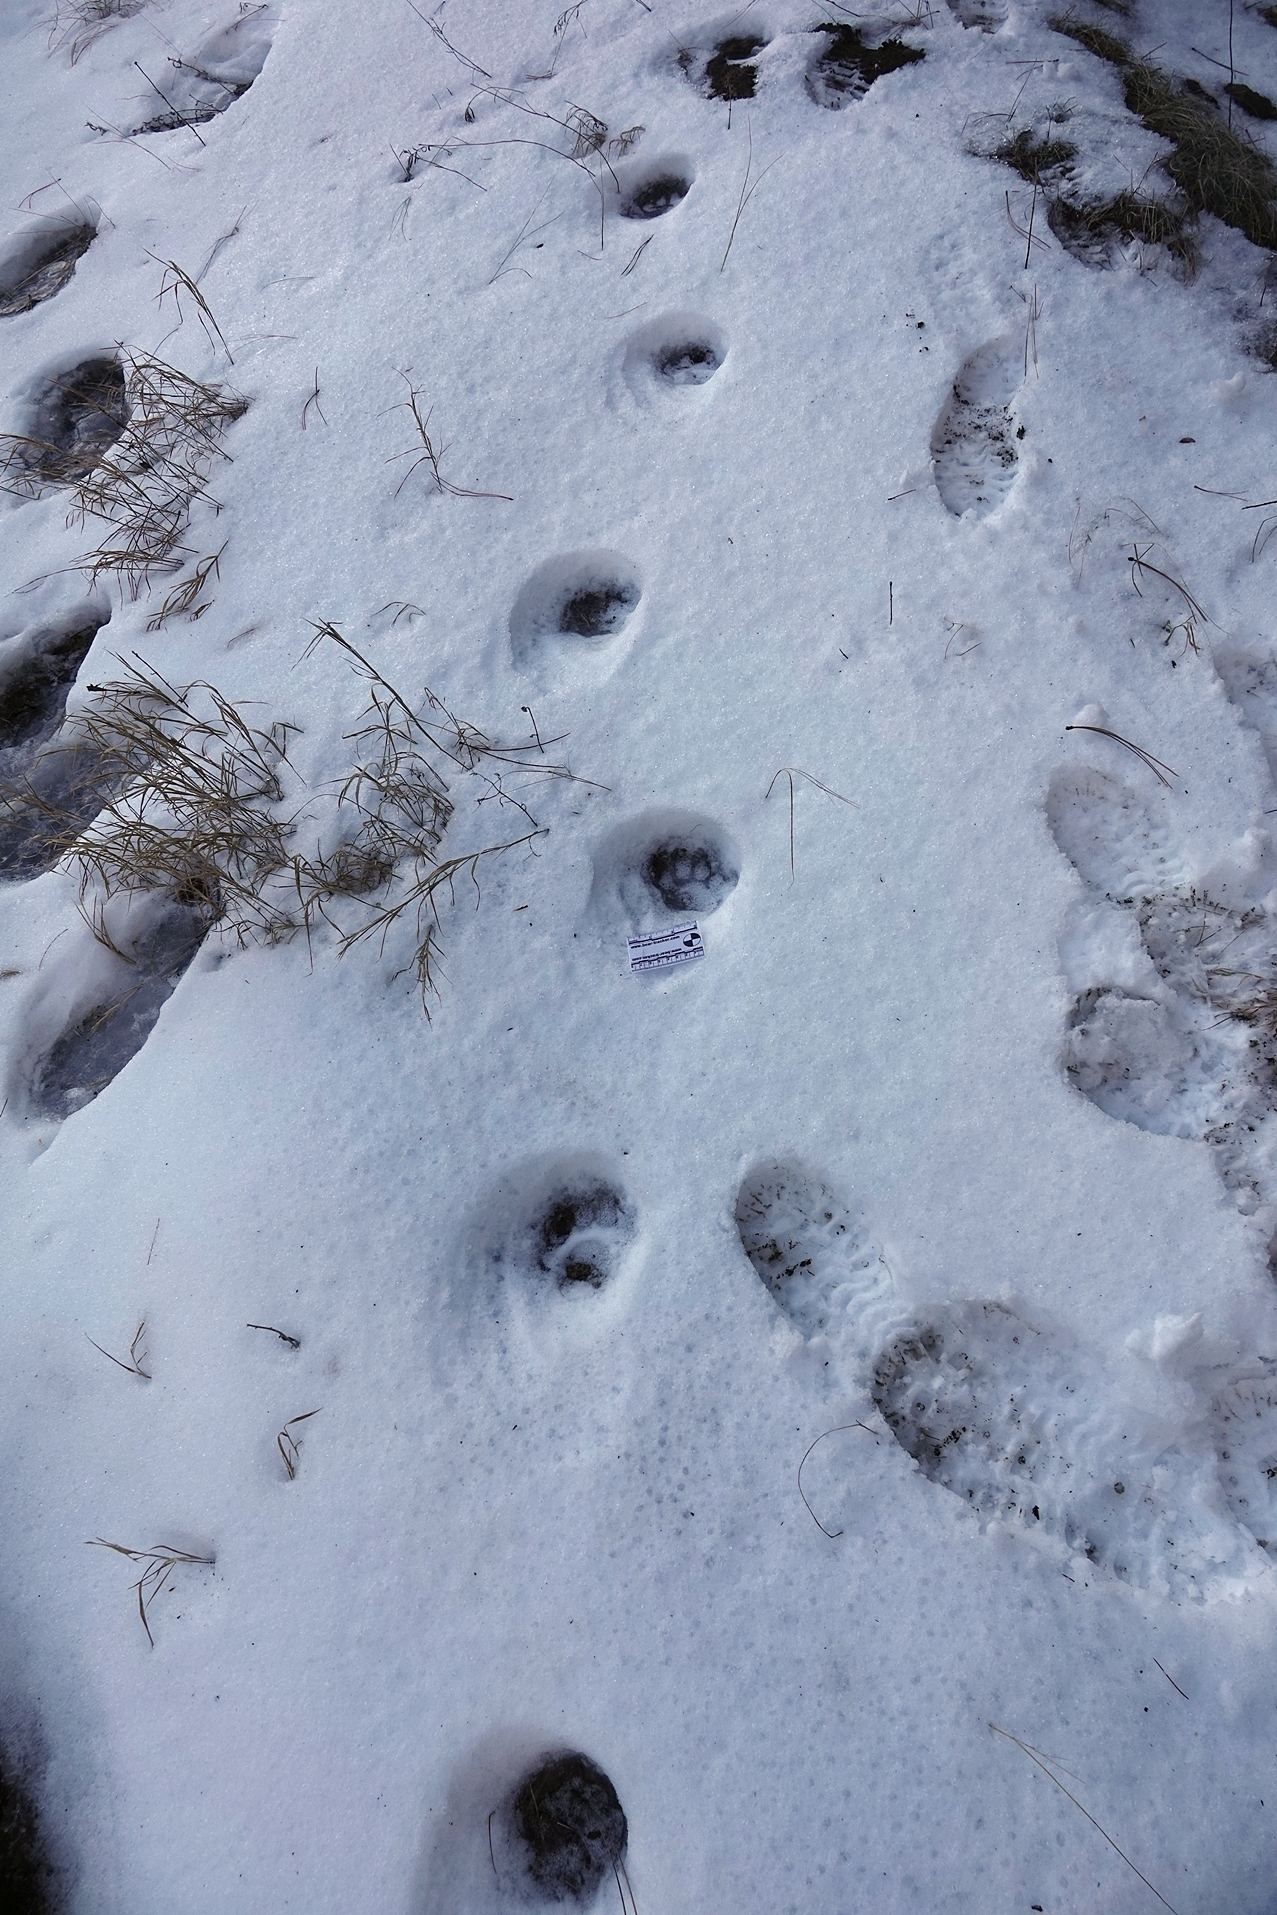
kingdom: Animalia
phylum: Chordata
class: Mammalia
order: Carnivora
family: Felidae
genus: Puma
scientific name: Puma concolor
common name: Puma
